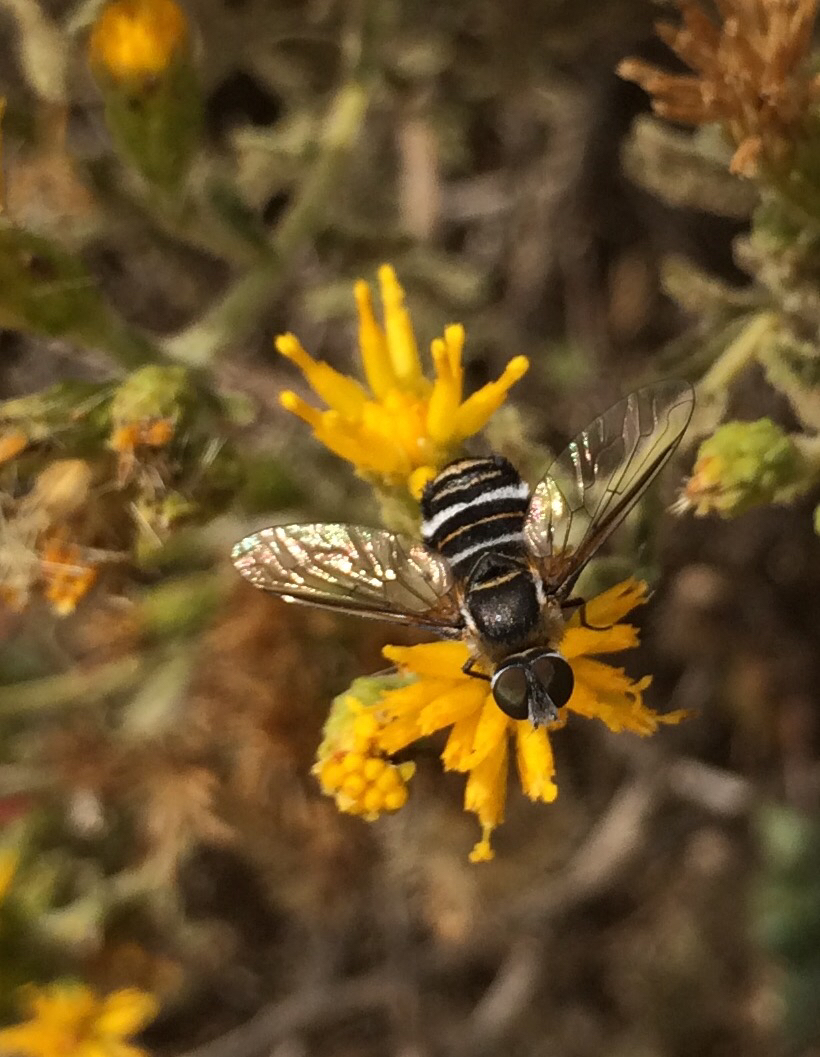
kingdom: Animalia
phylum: Arthropoda
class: Insecta
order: Diptera
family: Bombyliidae
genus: Villa
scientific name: Villa lateralis
